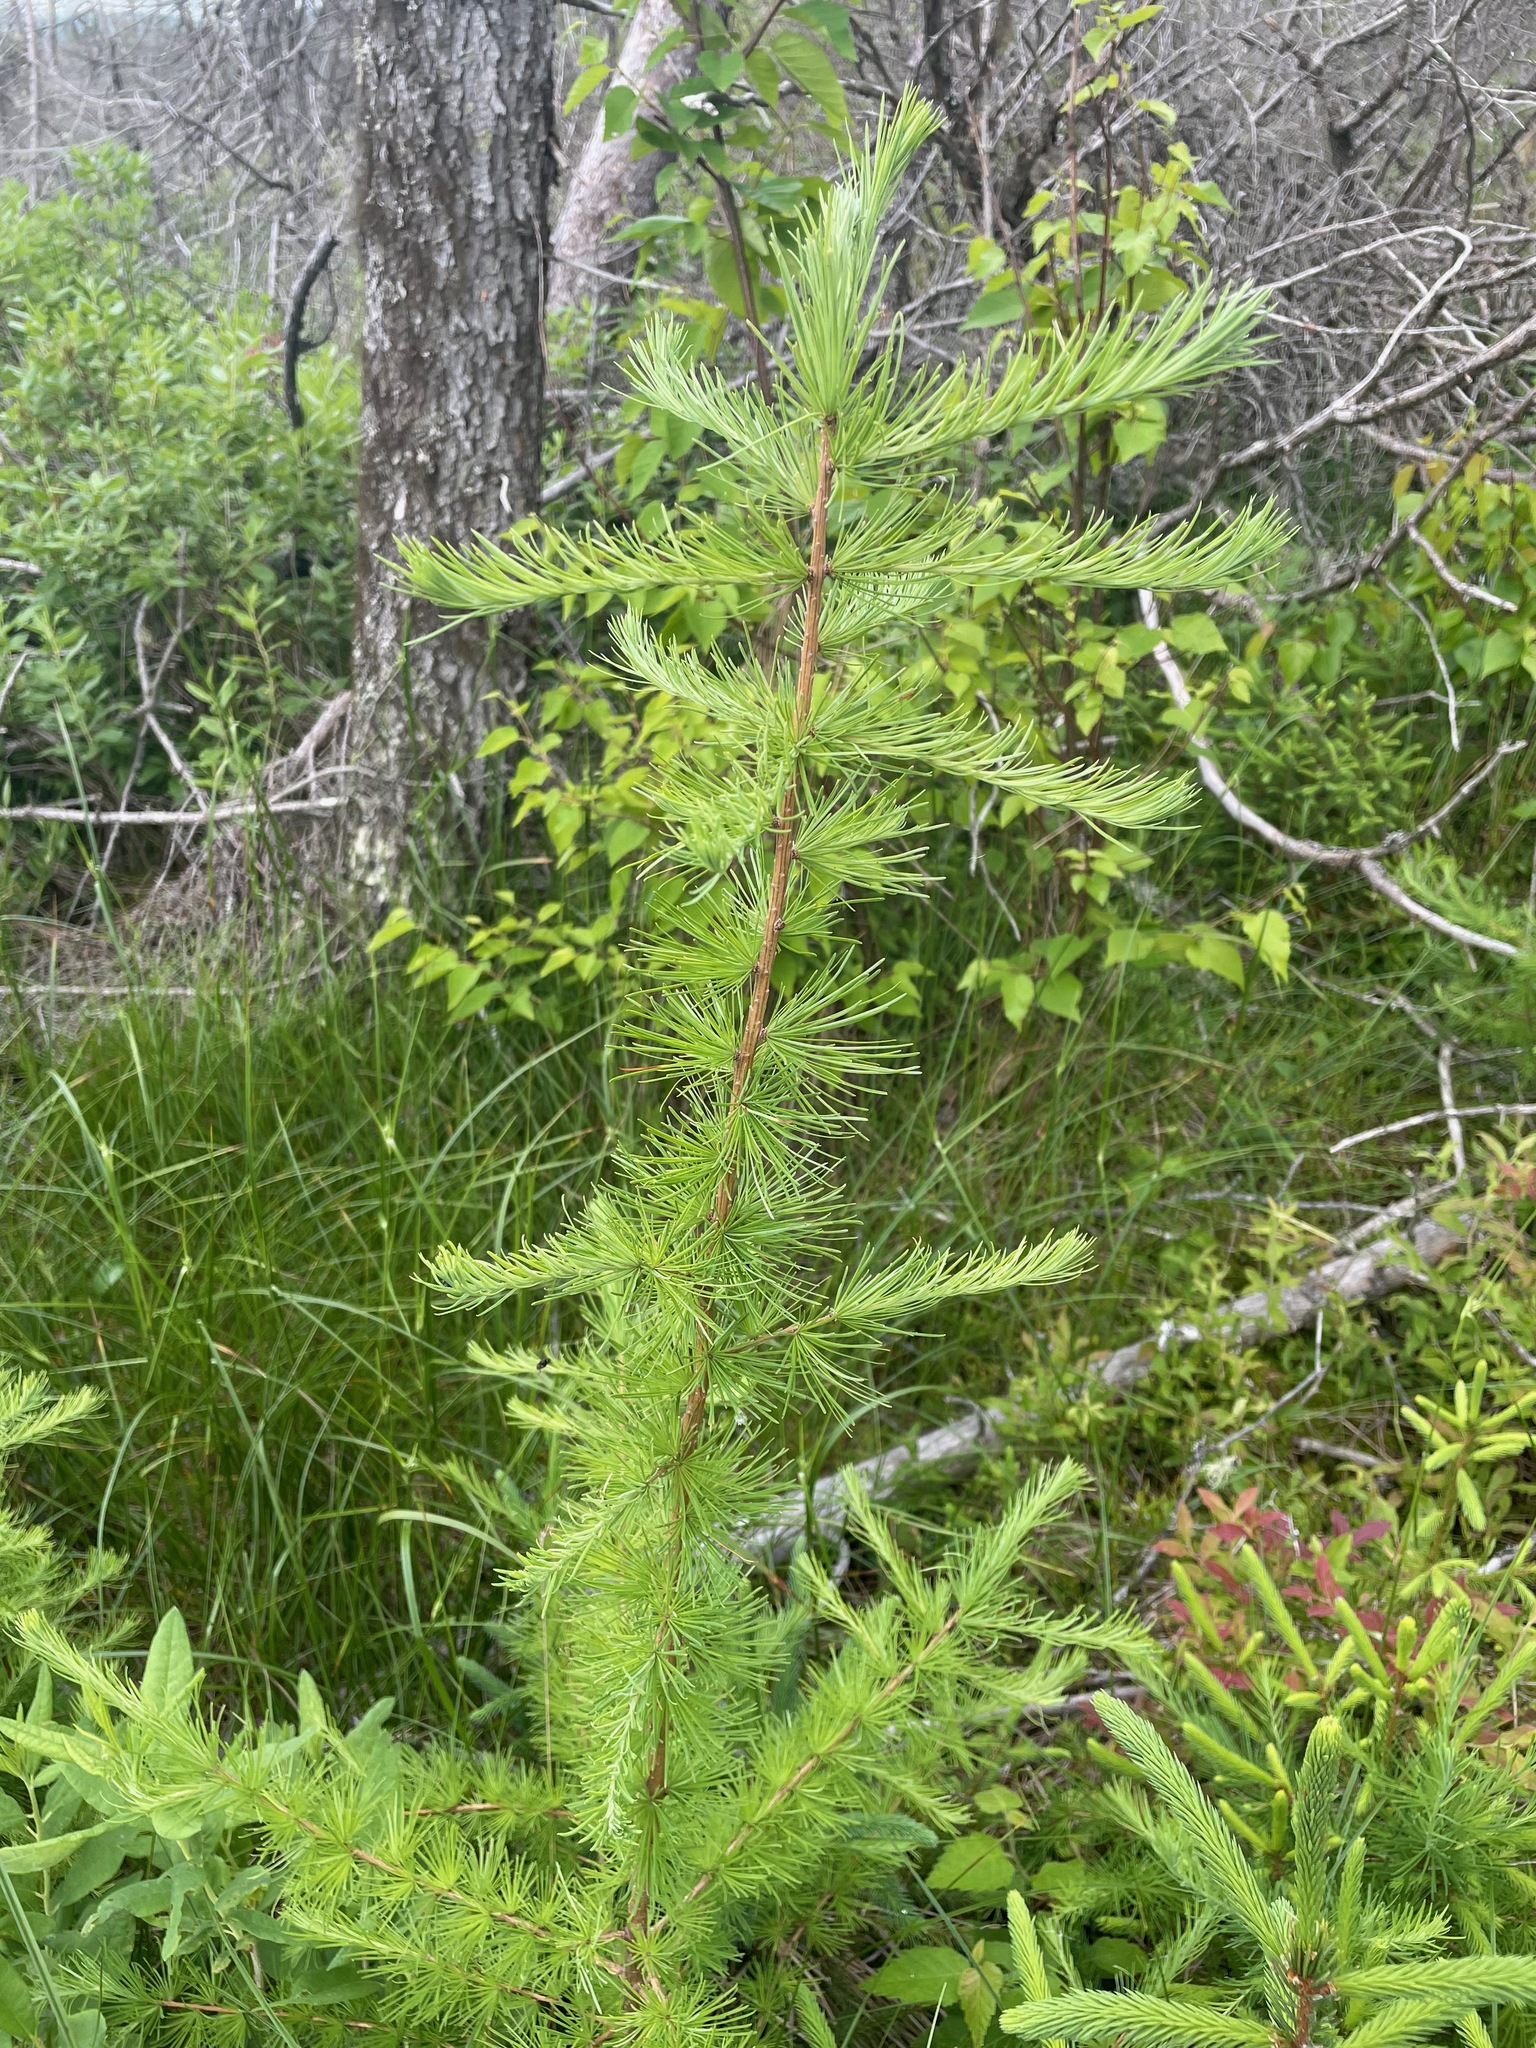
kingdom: Plantae
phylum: Tracheophyta
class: Pinopsida
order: Pinales
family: Pinaceae
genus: Larix
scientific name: Larix laricina
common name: American larch
